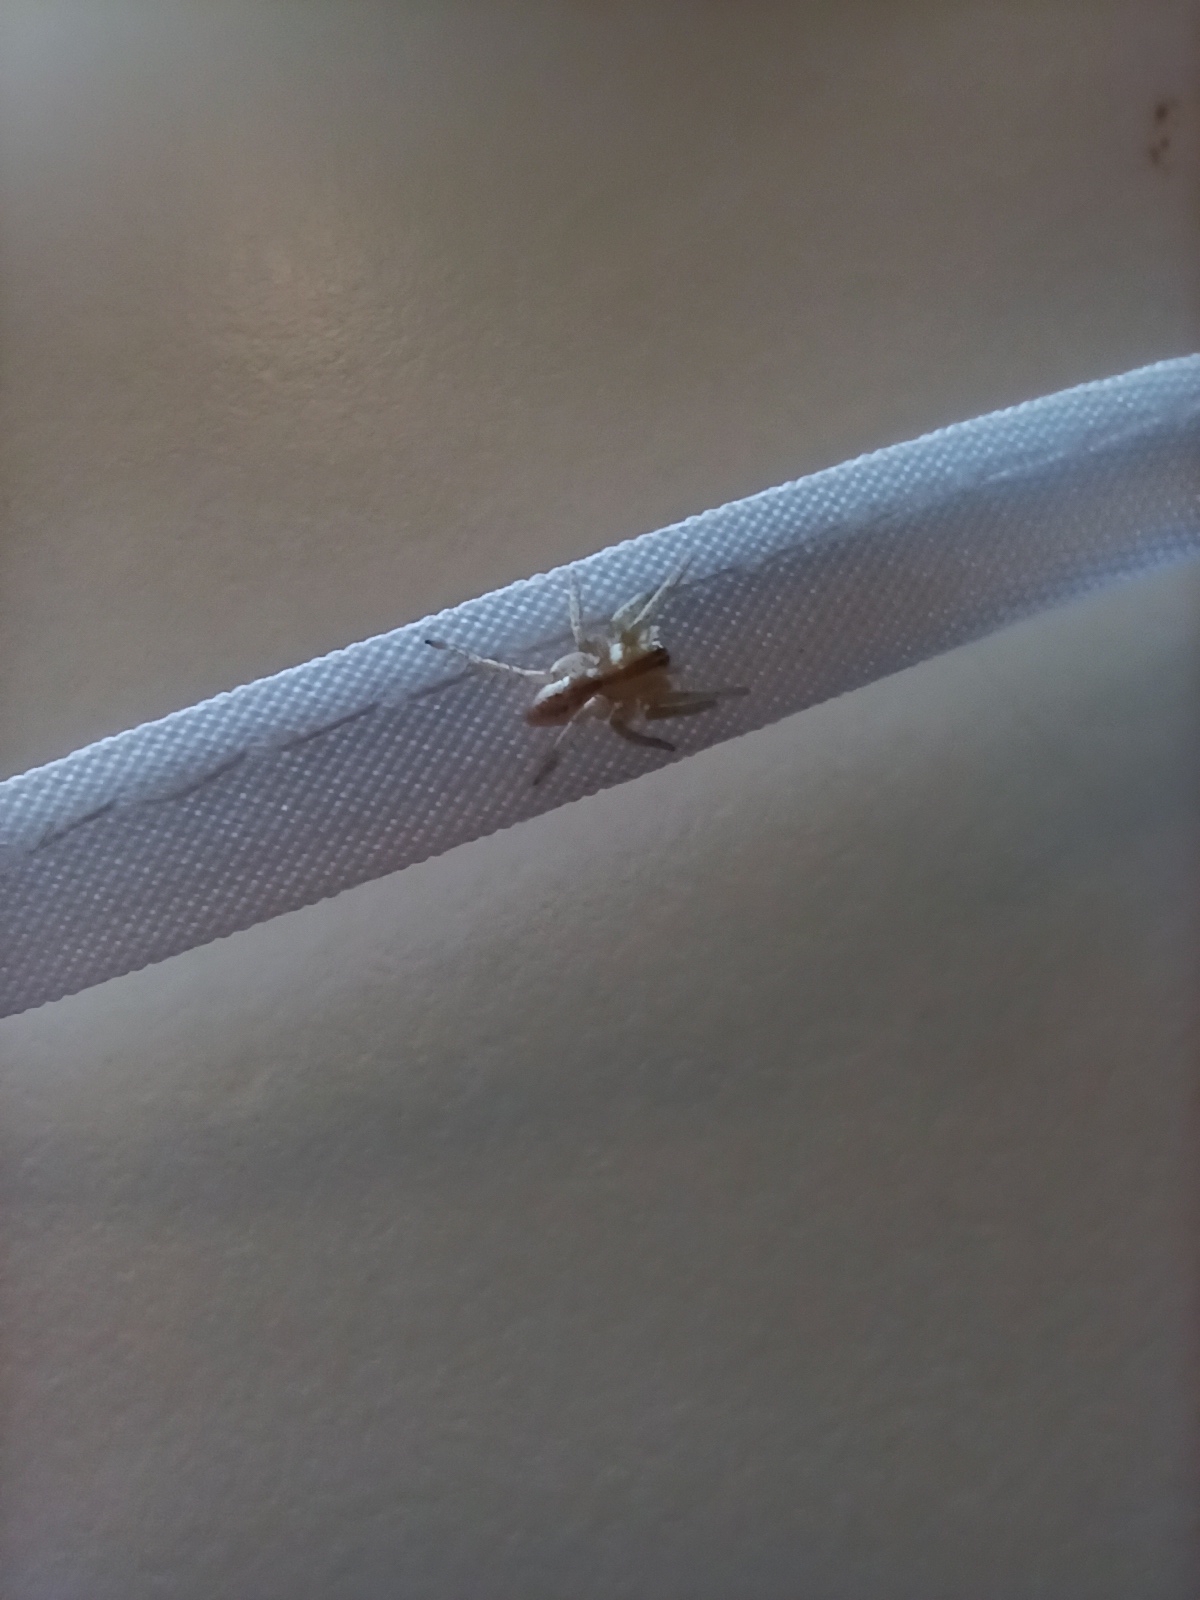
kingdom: Animalia
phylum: Arthropoda
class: Arachnida
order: Araneae
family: Anyphaenidae
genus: Arachosia
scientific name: Arachosia praesignis
